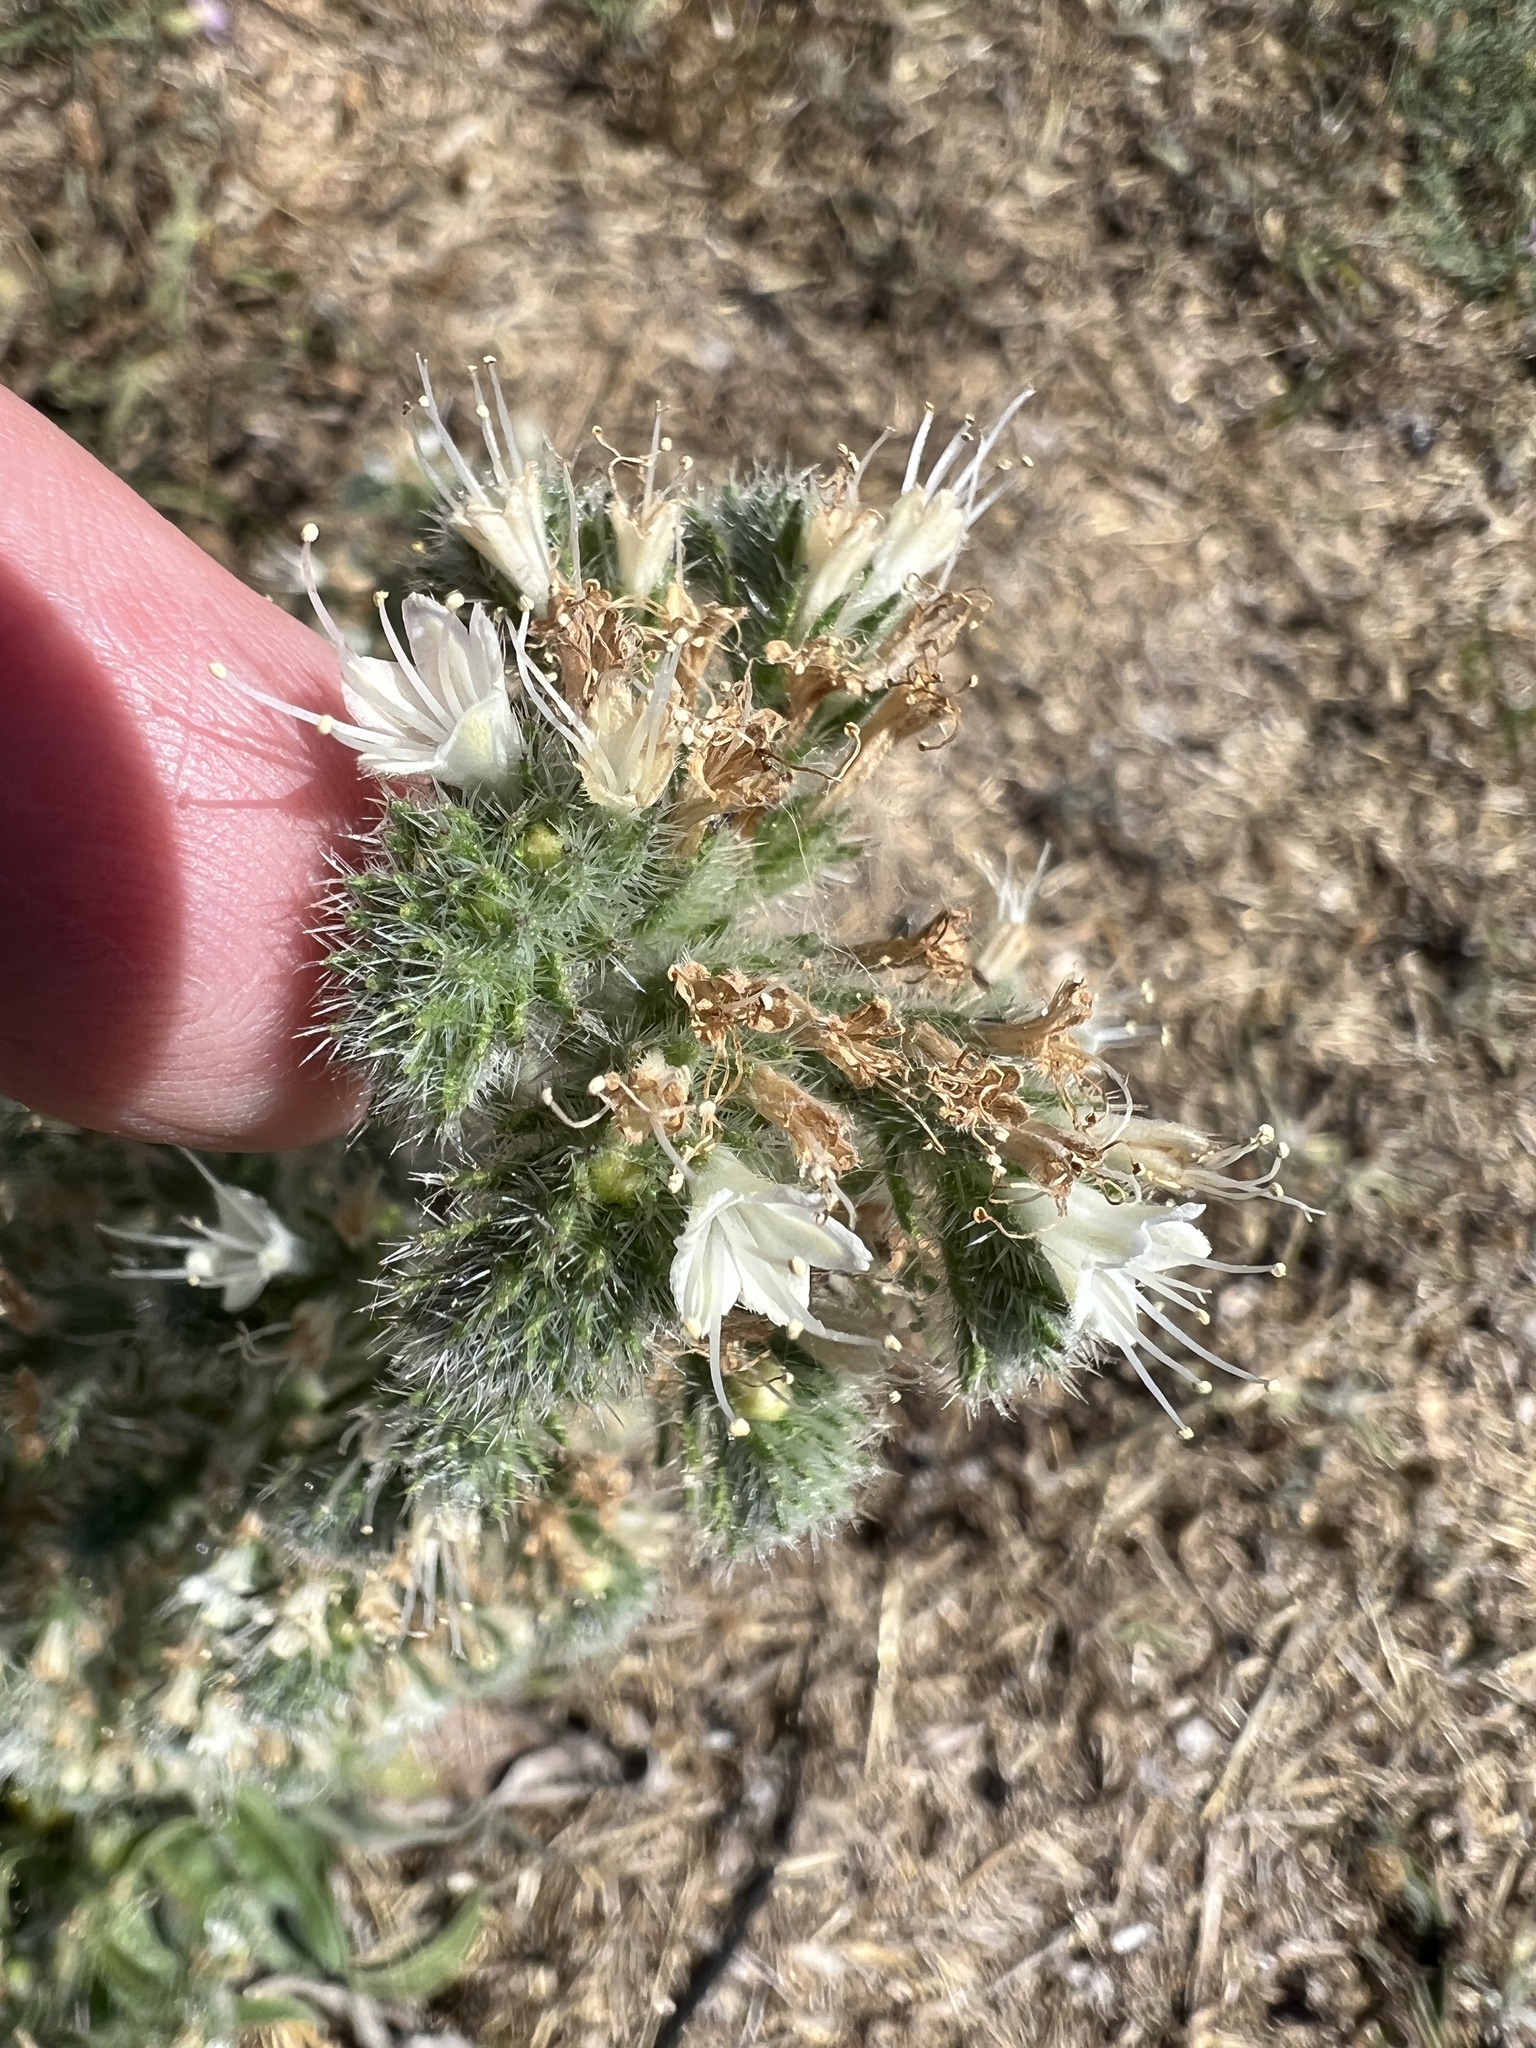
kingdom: Plantae
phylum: Tracheophyta
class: Magnoliopsida
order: Boraginales
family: Boraginaceae
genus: Echium
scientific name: Echium italicum
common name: Italian viper's bugloss
